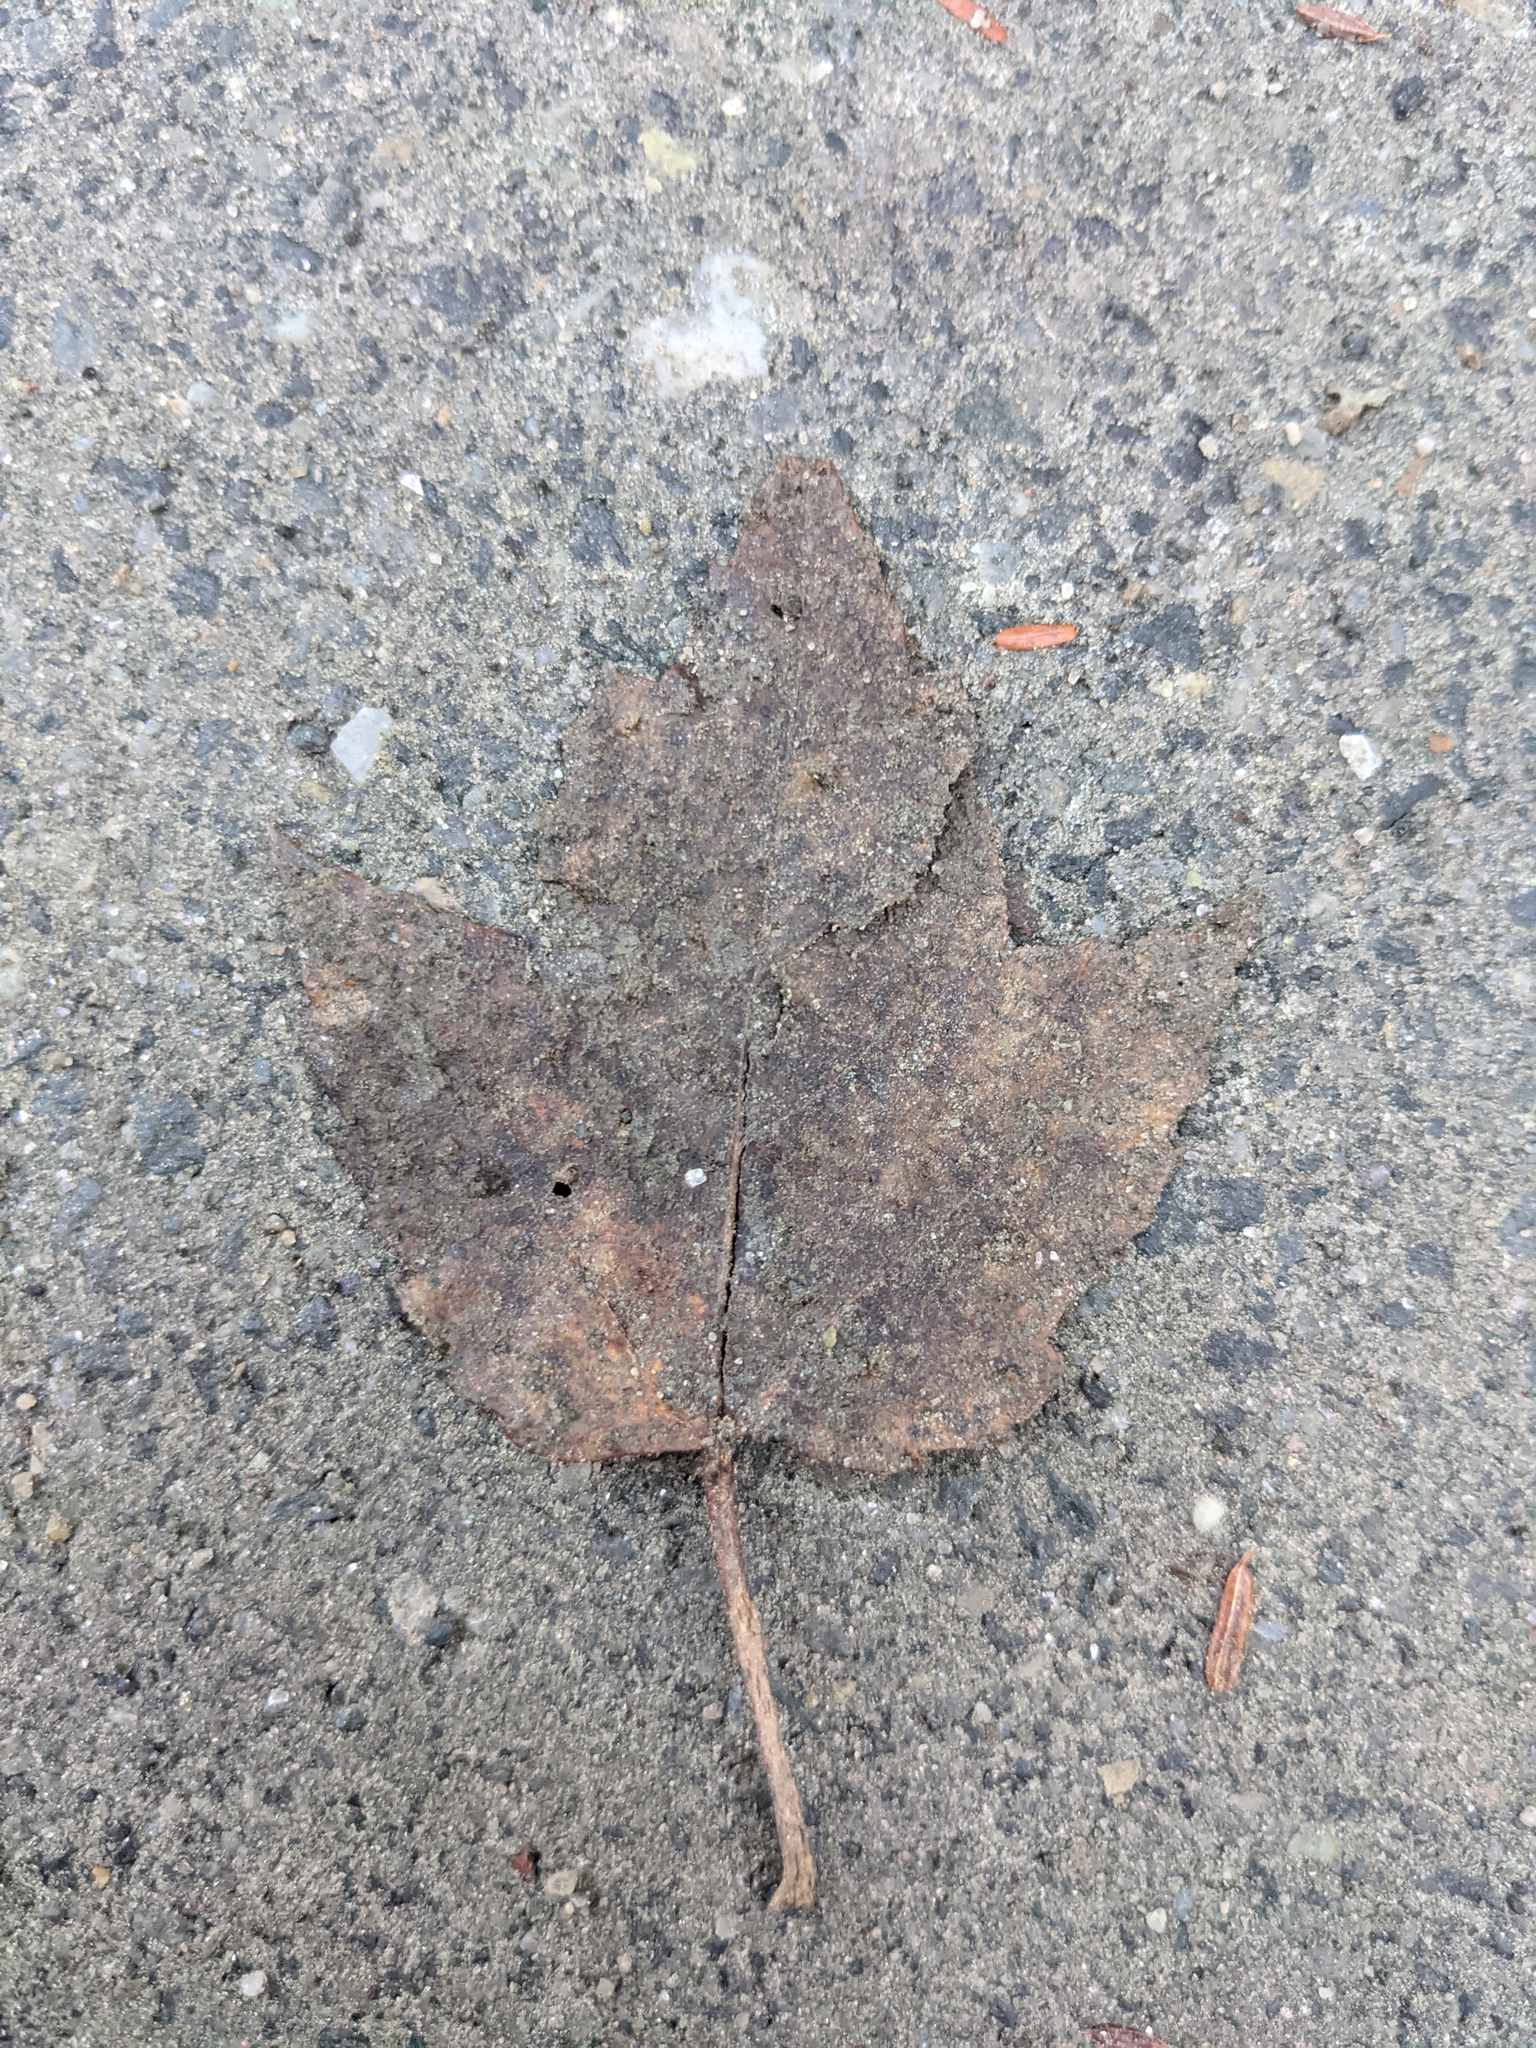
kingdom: Plantae
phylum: Tracheophyta
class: Magnoliopsida
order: Sapindales
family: Sapindaceae
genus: Acer
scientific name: Acer rubrum
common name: Red maple
